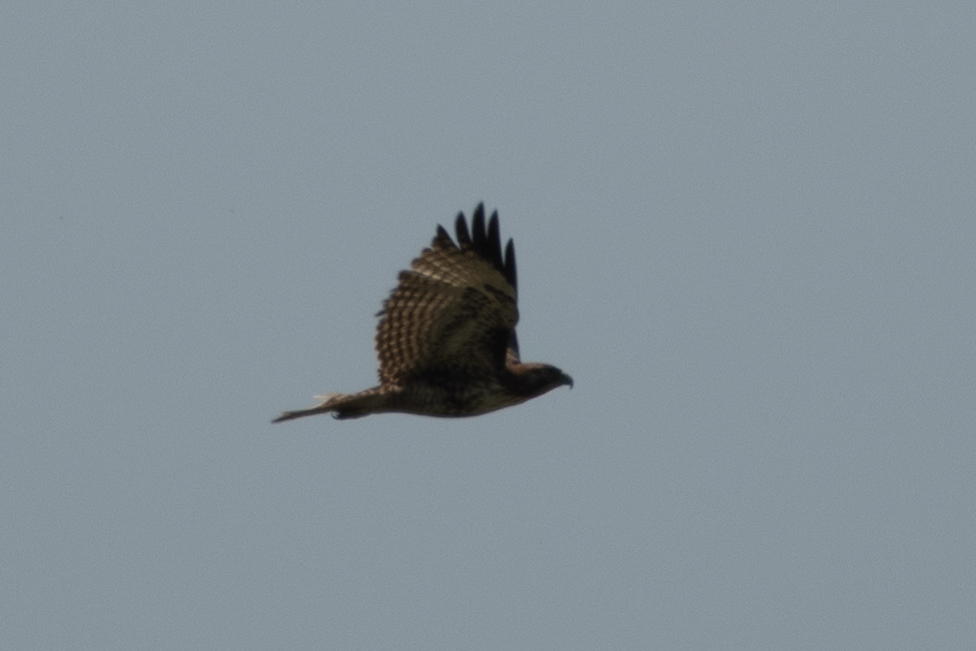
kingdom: Animalia
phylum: Chordata
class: Aves
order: Accipitriformes
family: Accipitridae
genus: Buteo
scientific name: Buteo jamaicensis
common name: Red-tailed hawk
